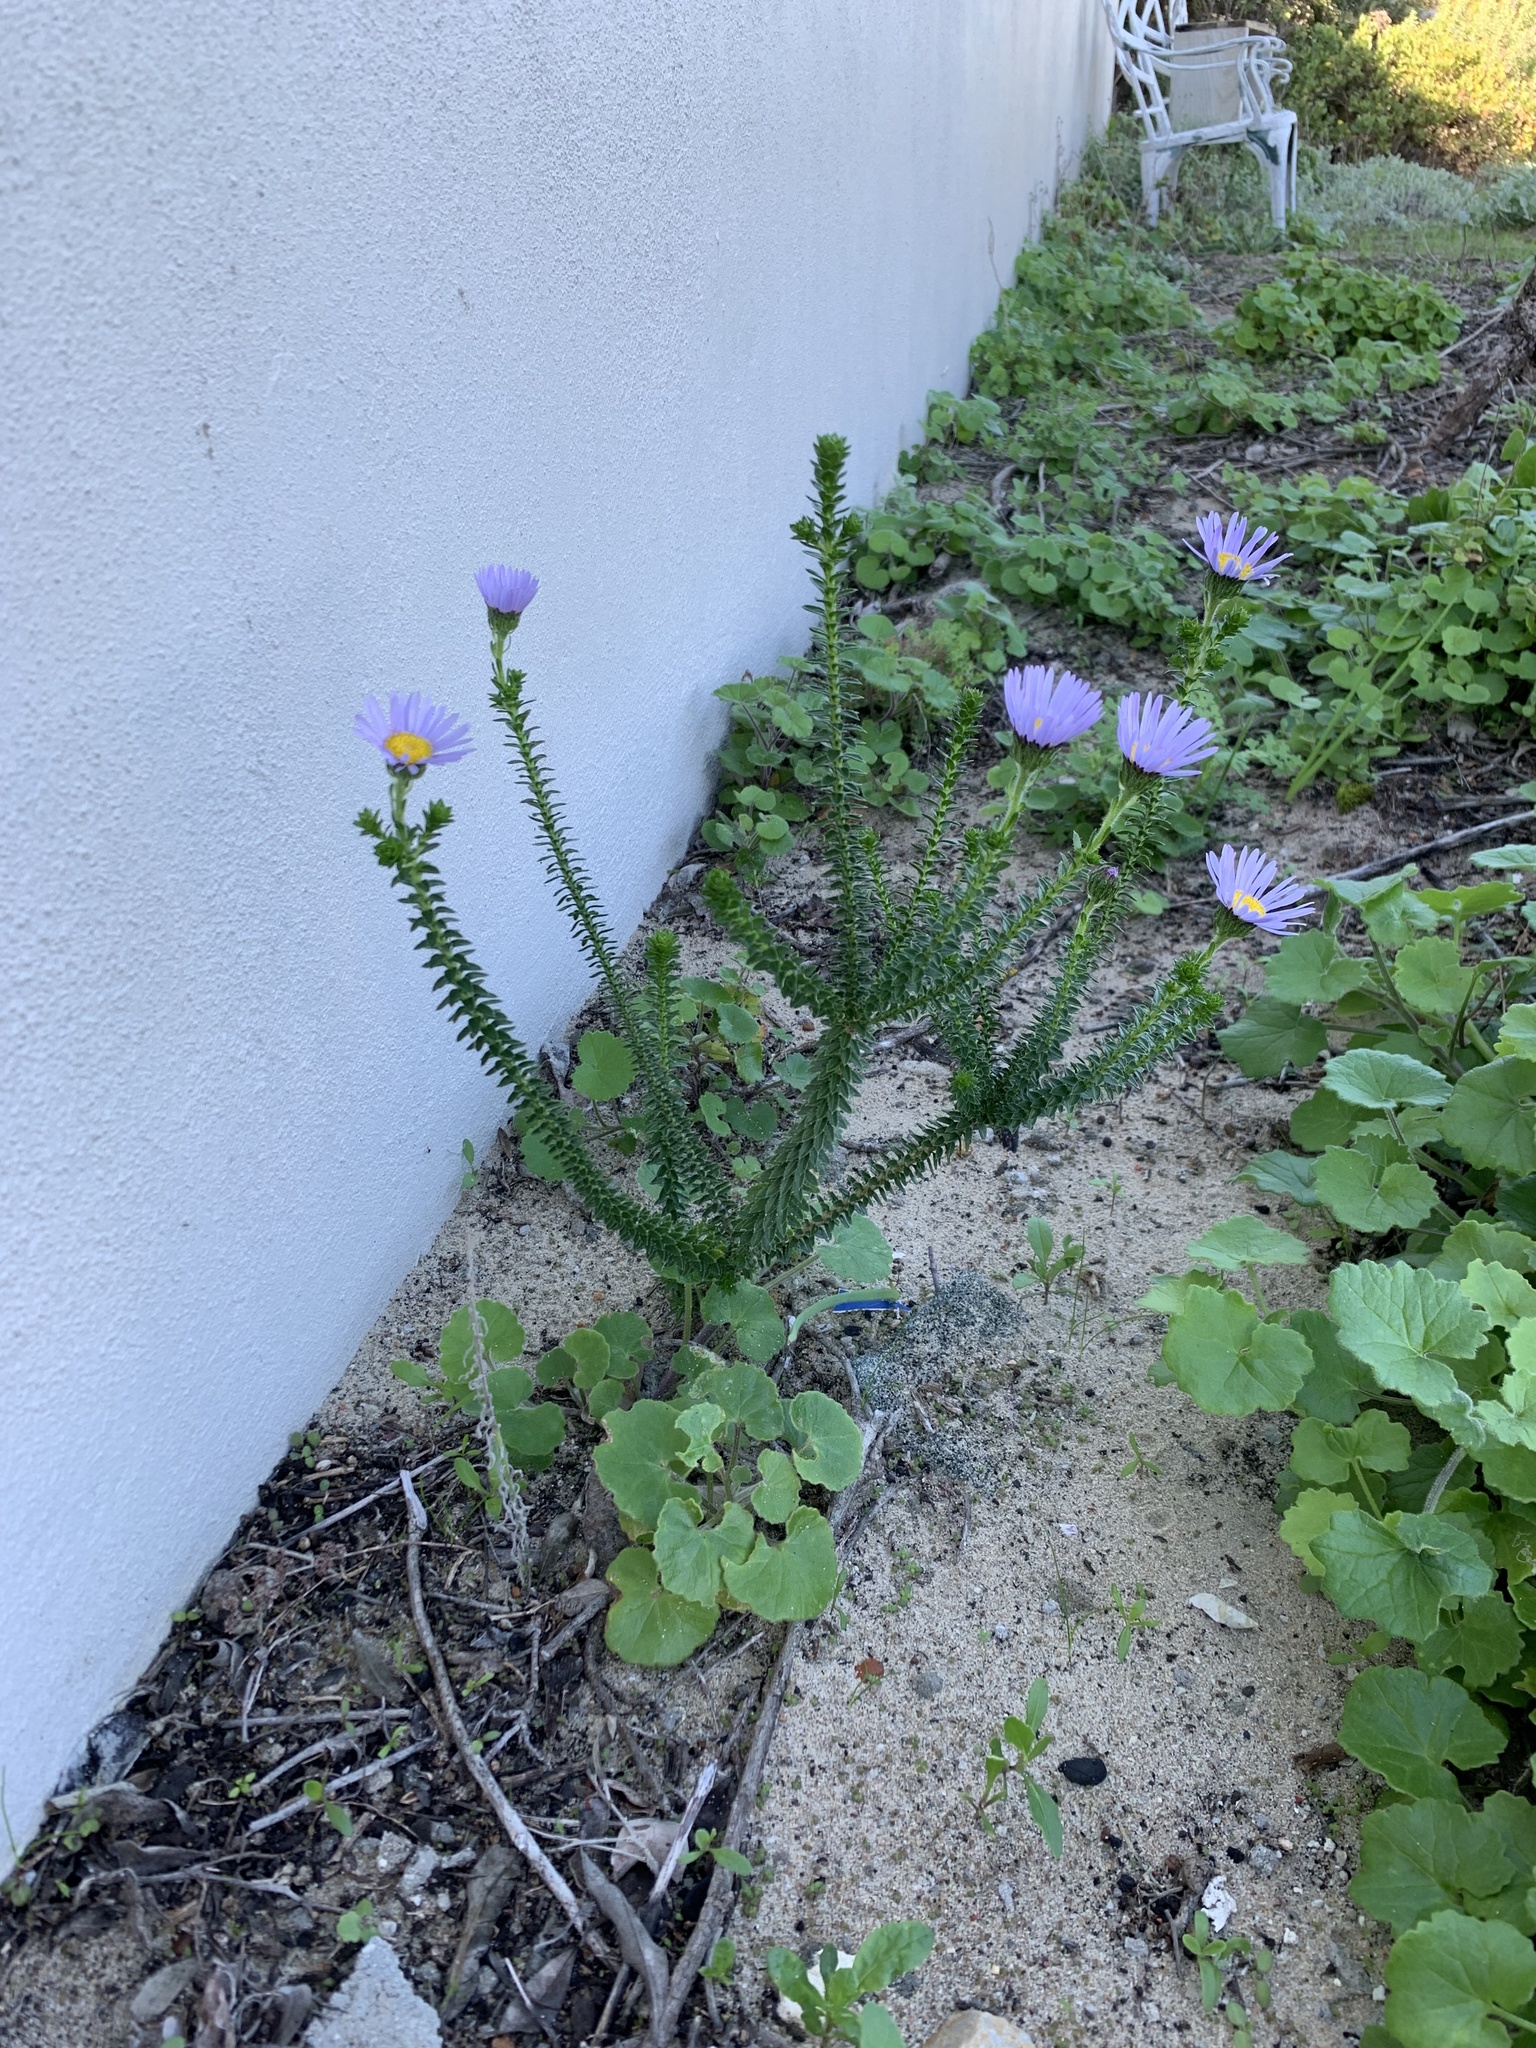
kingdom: Plantae
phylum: Tracheophyta
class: Magnoliopsida
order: Asterales
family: Asteraceae
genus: Felicia
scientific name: Felicia echinata
